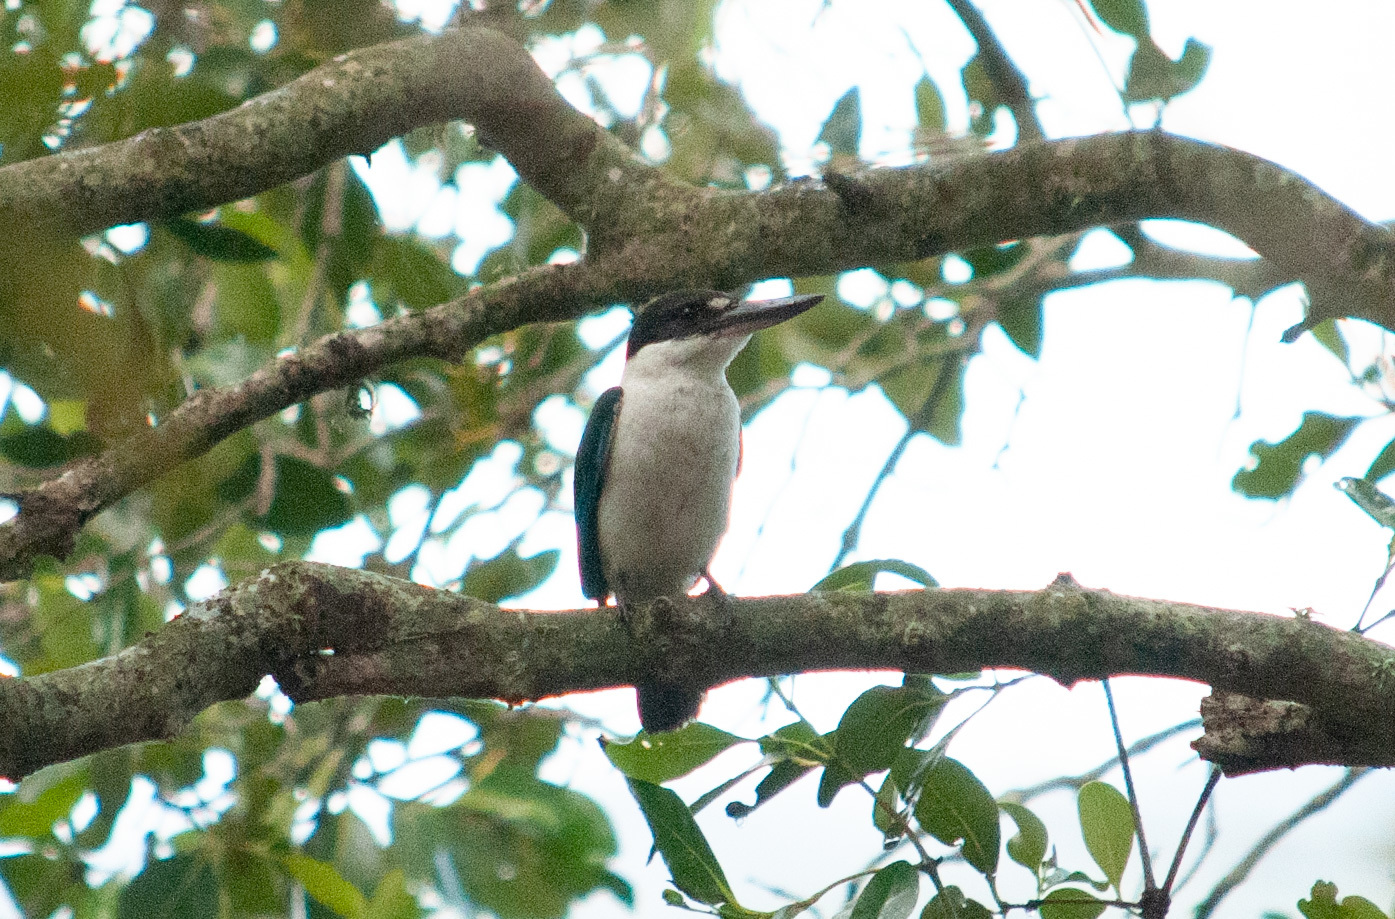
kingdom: Animalia
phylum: Chordata
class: Aves
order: Coraciiformes
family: Alcedinidae
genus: Todiramphus
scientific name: Todiramphus sordidus
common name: Torresian kingfisher
